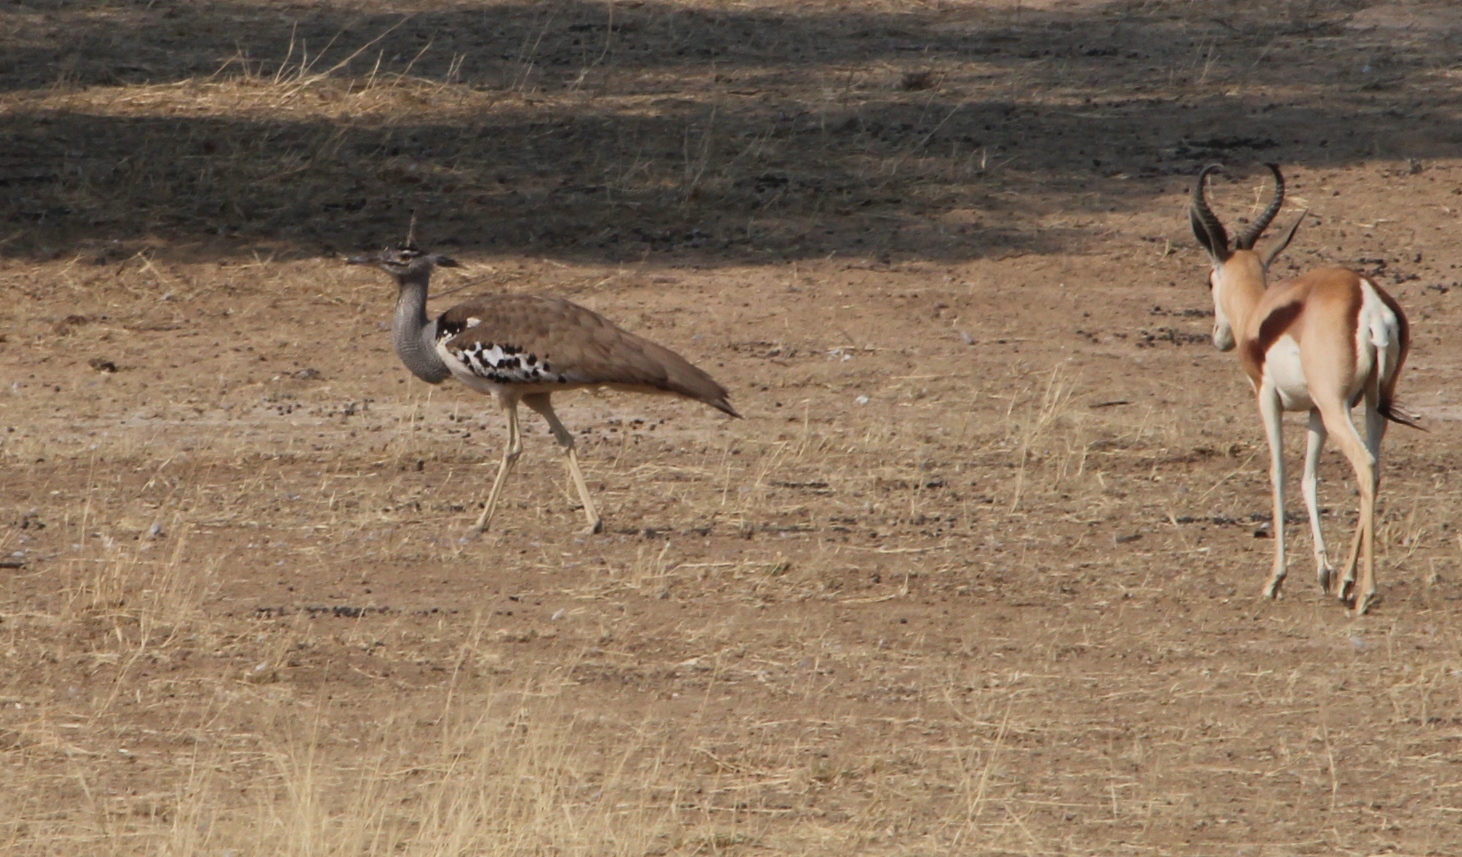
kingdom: Animalia
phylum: Chordata
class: Aves
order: Otidiformes
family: Otididae
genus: Ardeotis
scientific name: Ardeotis kori
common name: Kori bustard
